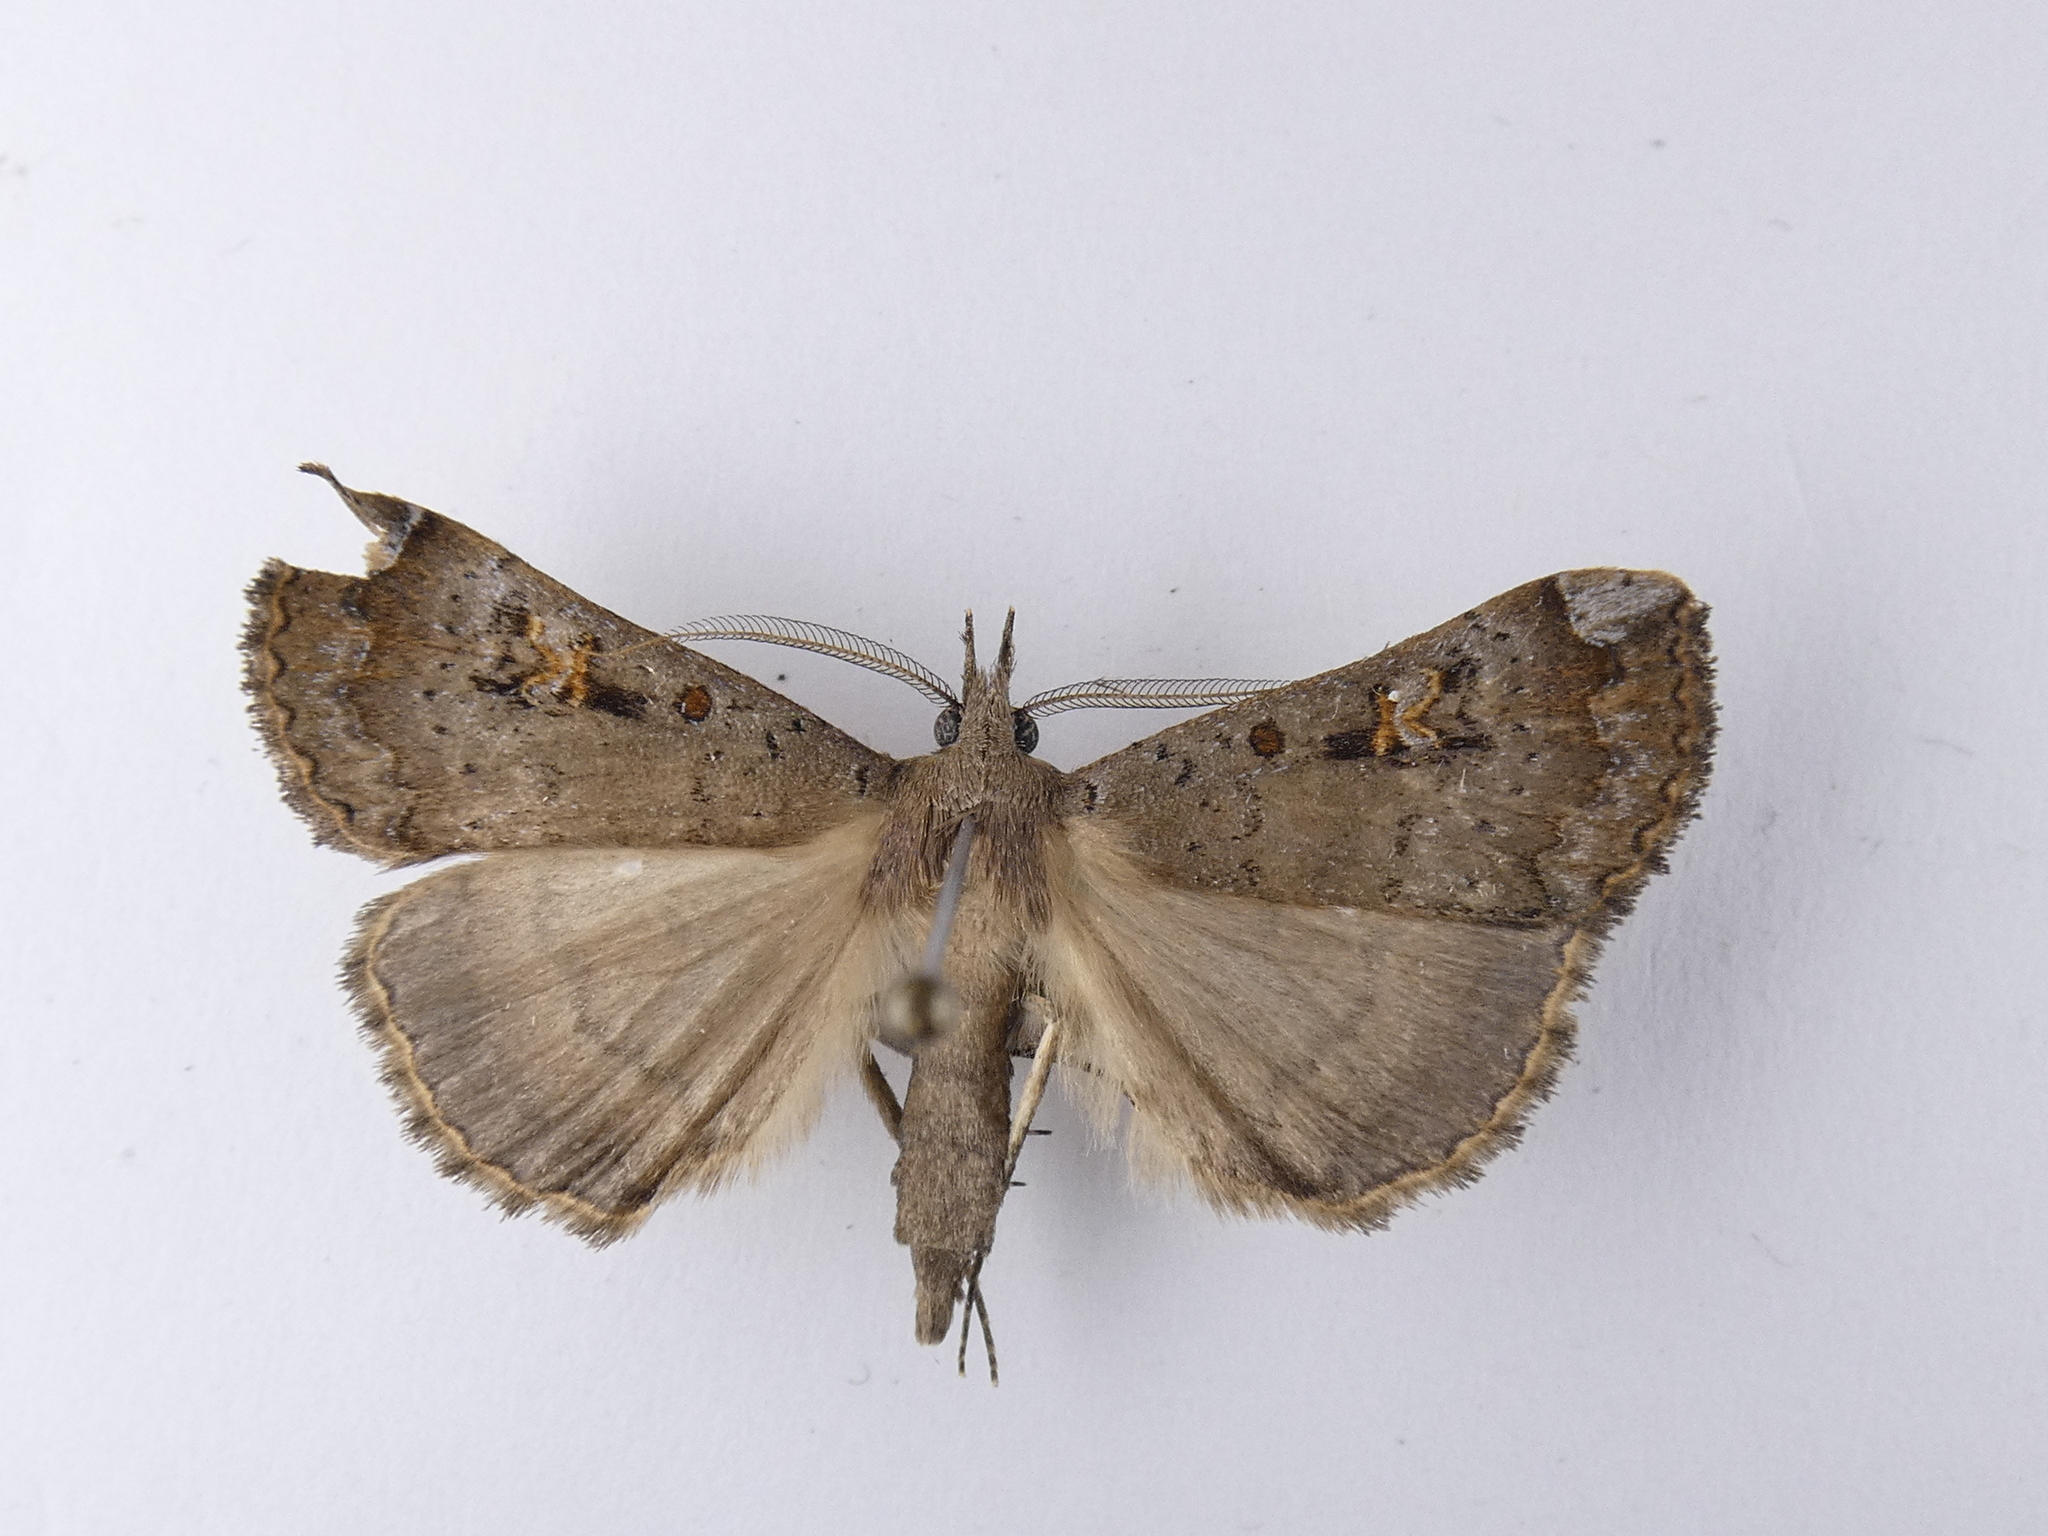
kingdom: Animalia
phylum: Arthropoda
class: Insecta
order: Lepidoptera
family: Erebidae
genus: Rhapsa
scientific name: Rhapsa scotosialis
